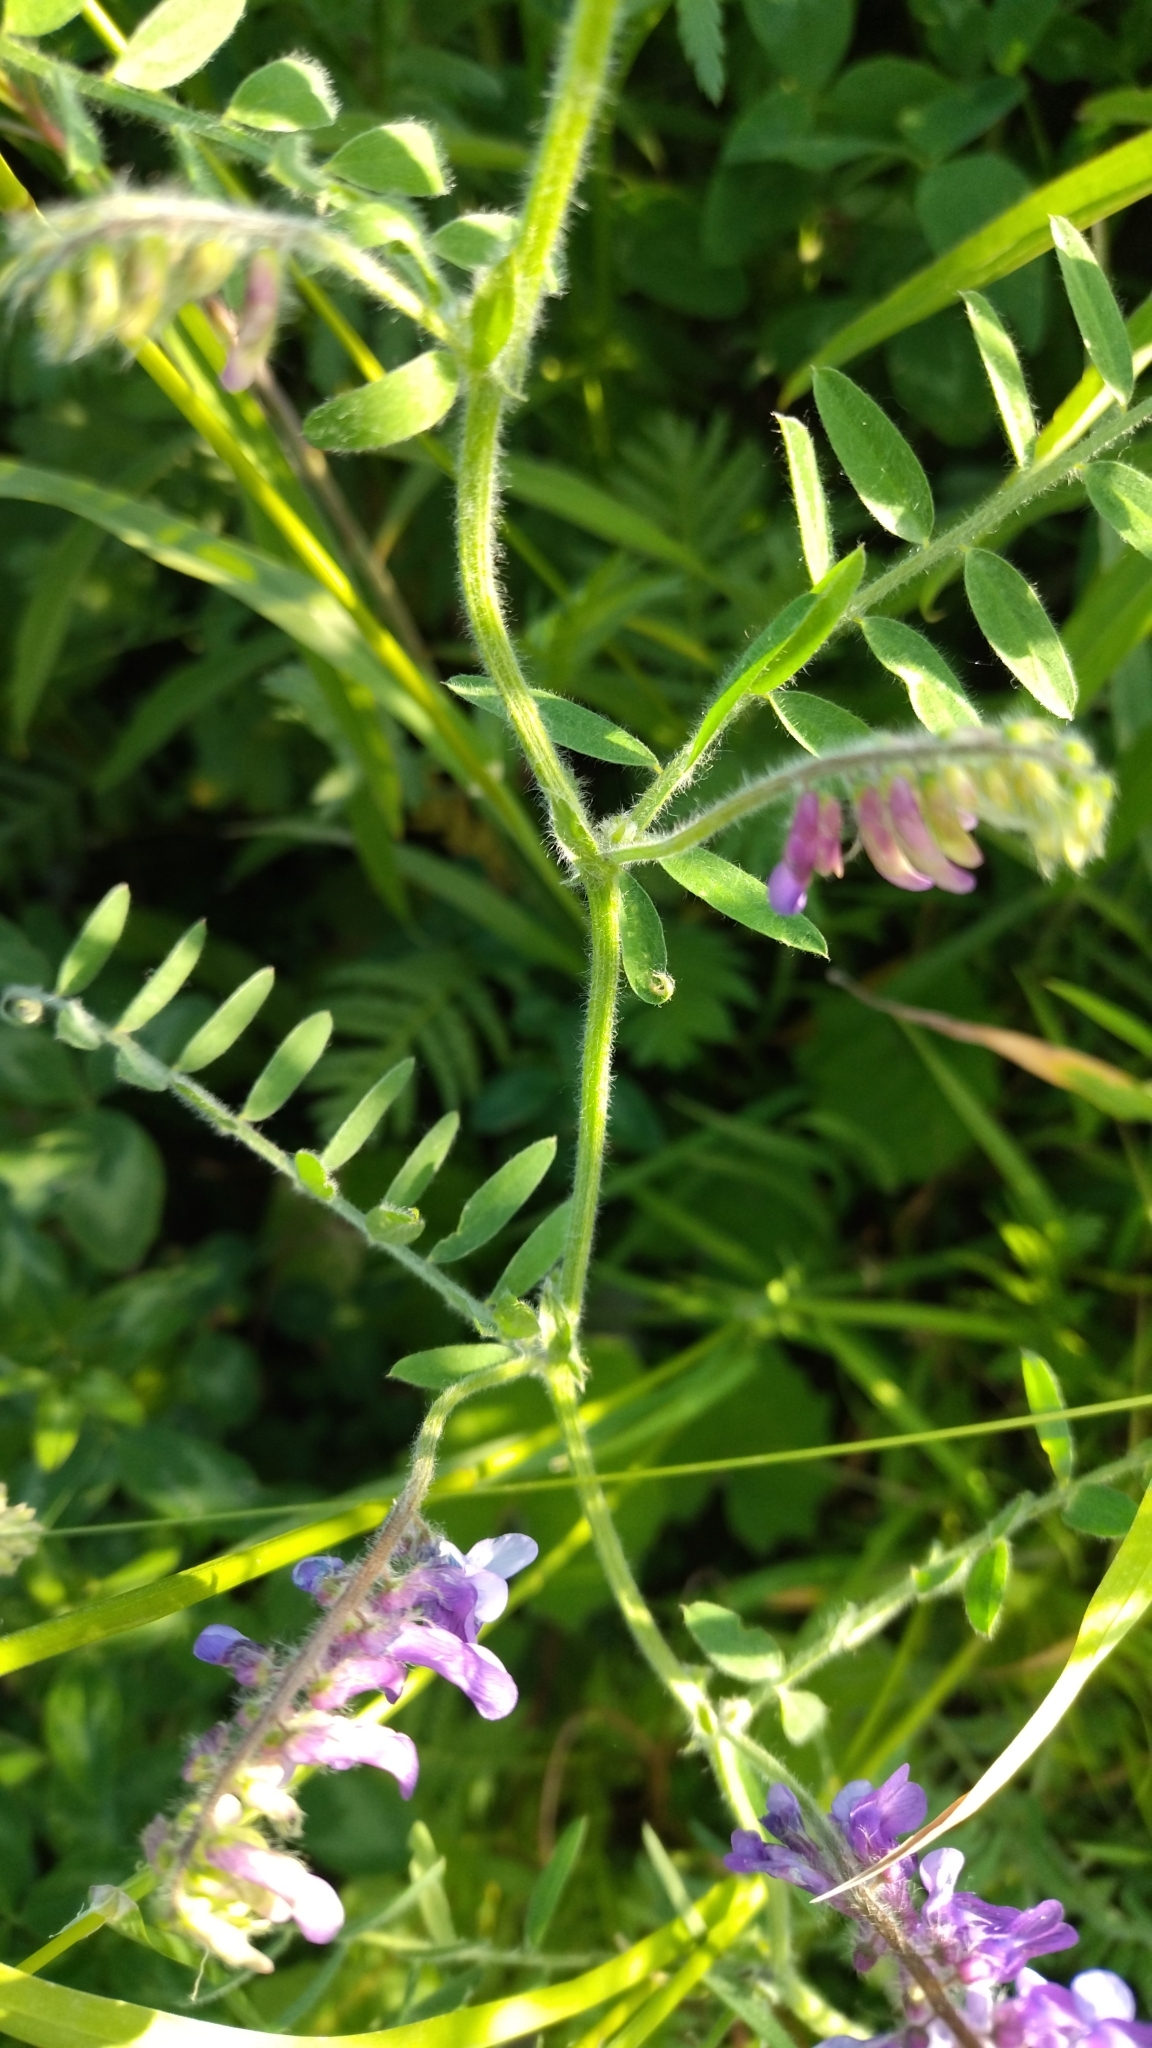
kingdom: Plantae
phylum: Tracheophyta
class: Magnoliopsida
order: Fabales
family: Fabaceae
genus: Vicia
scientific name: Vicia villosa
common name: Fodder vetch
